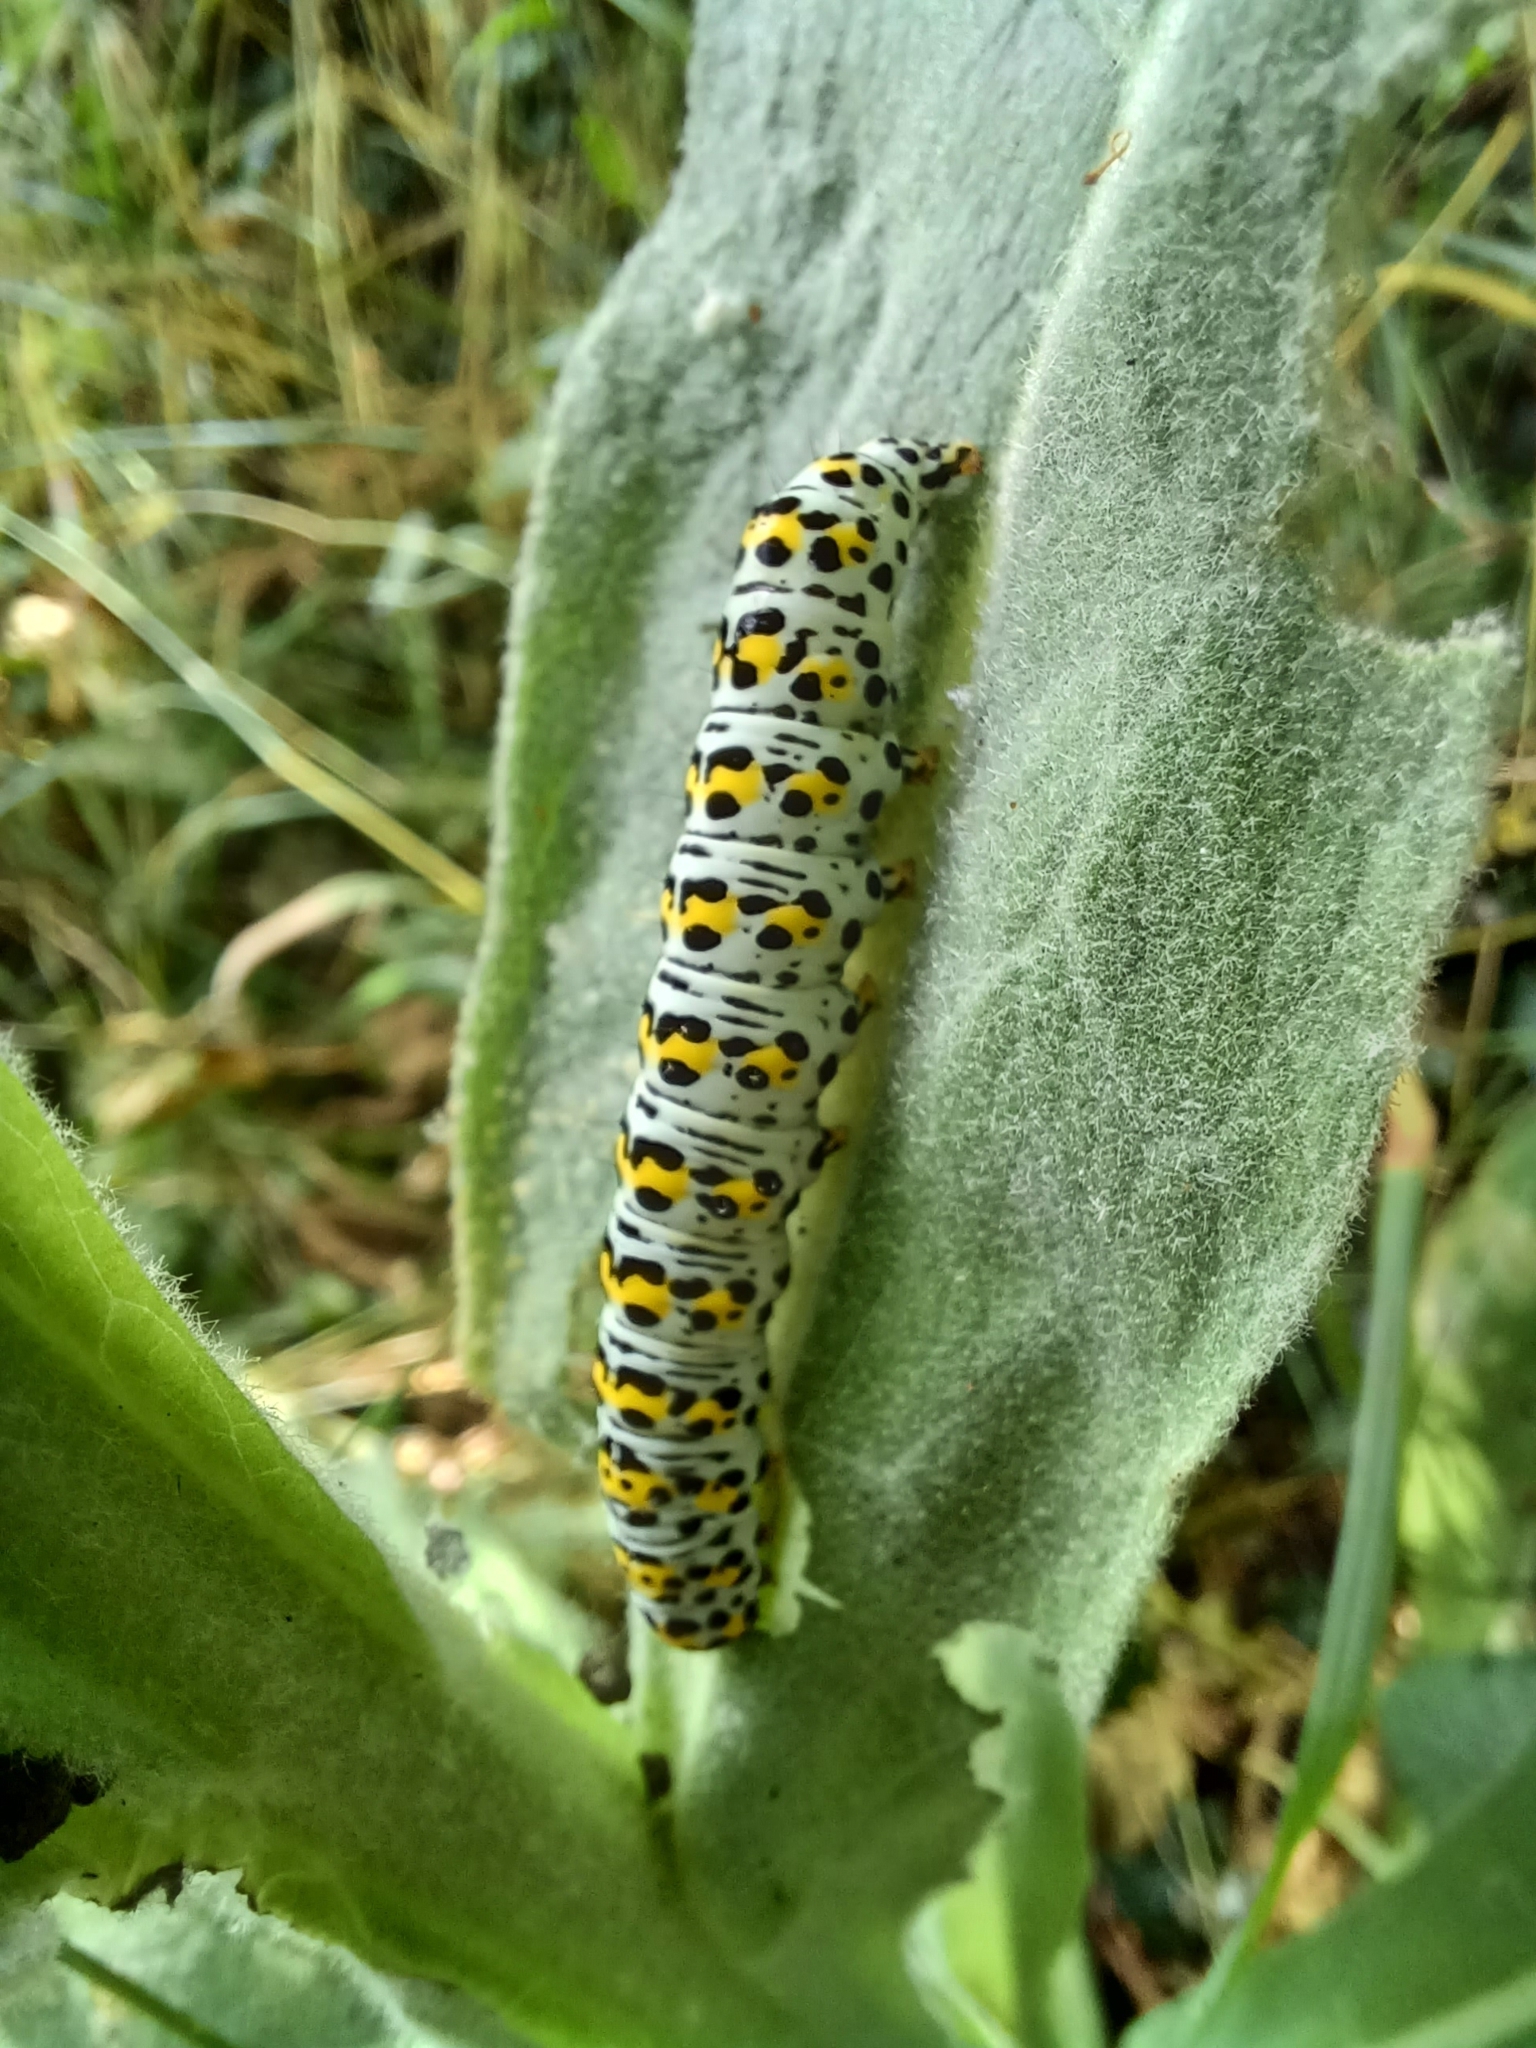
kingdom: Animalia
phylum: Arthropoda
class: Insecta
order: Lepidoptera
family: Noctuidae
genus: Cucullia
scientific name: Cucullia verbasci
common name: Mullein
